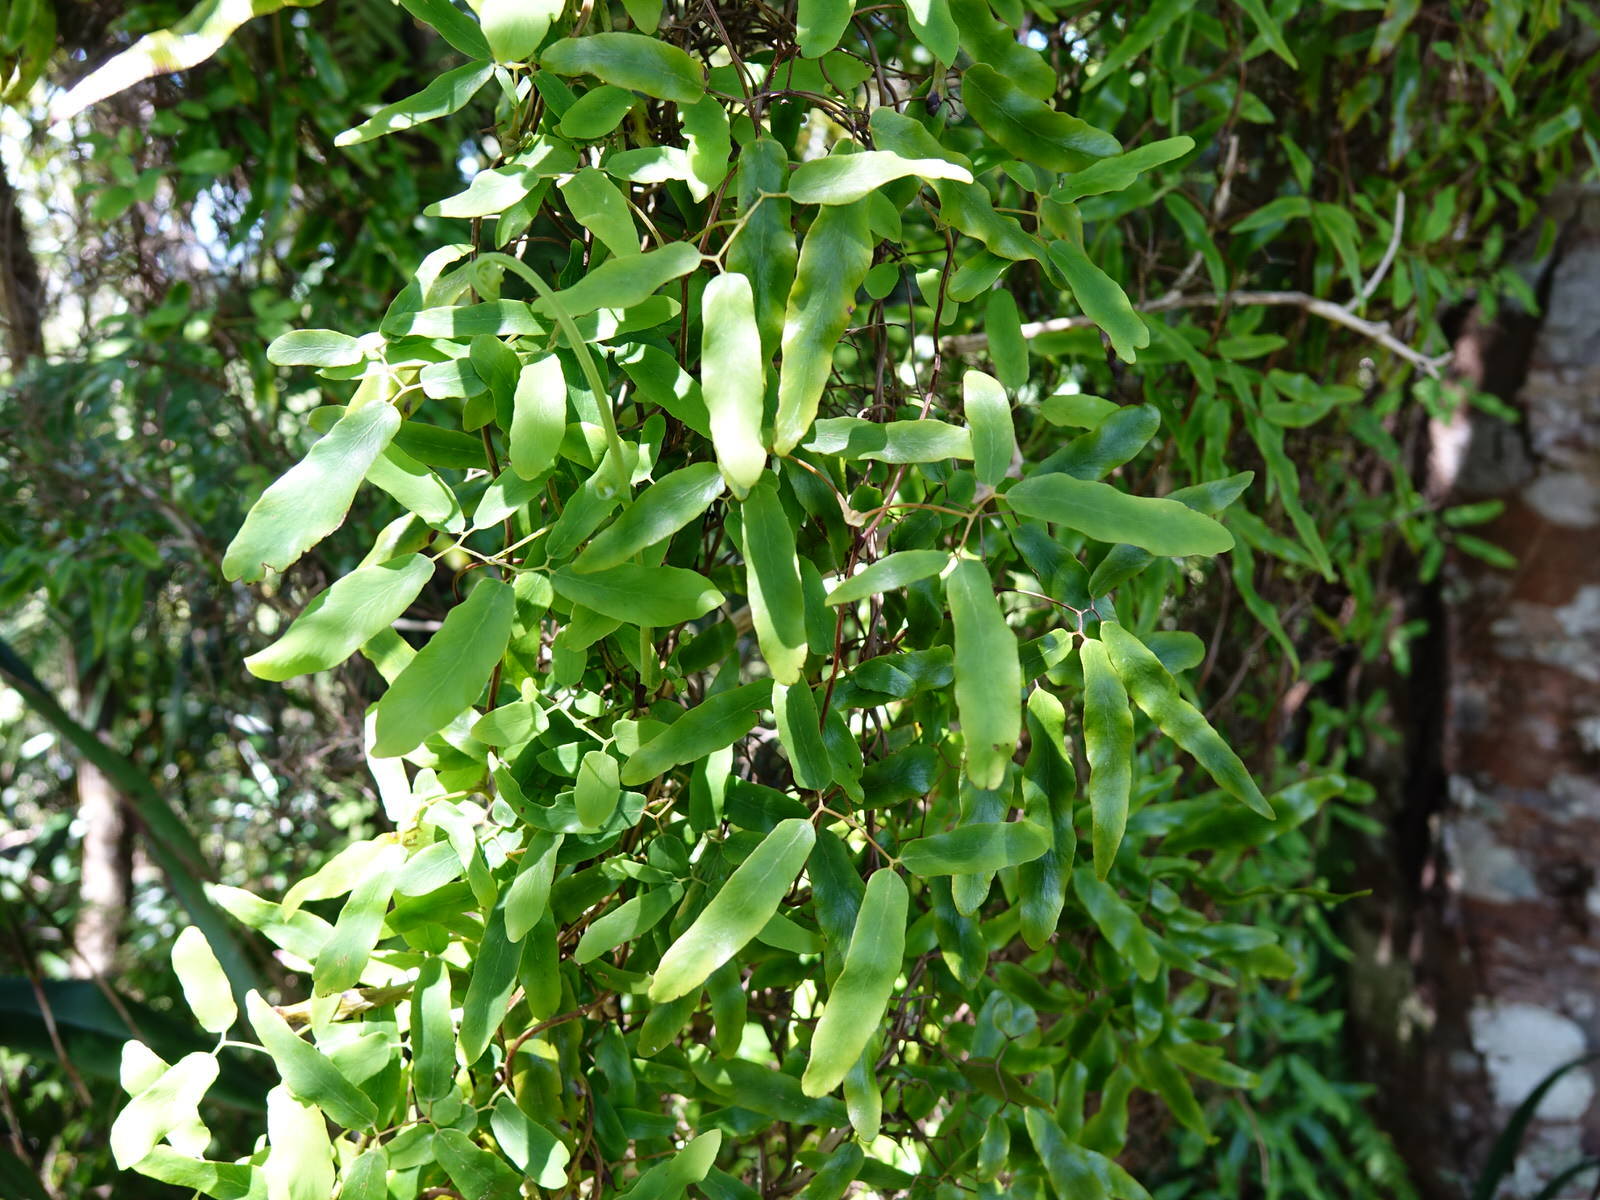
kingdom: Plantae
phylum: Tracheophyta
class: Polypodiopsida
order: Schizaeales
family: Lygodiaceae
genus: Lygodium
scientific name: Lygodium articulatum
